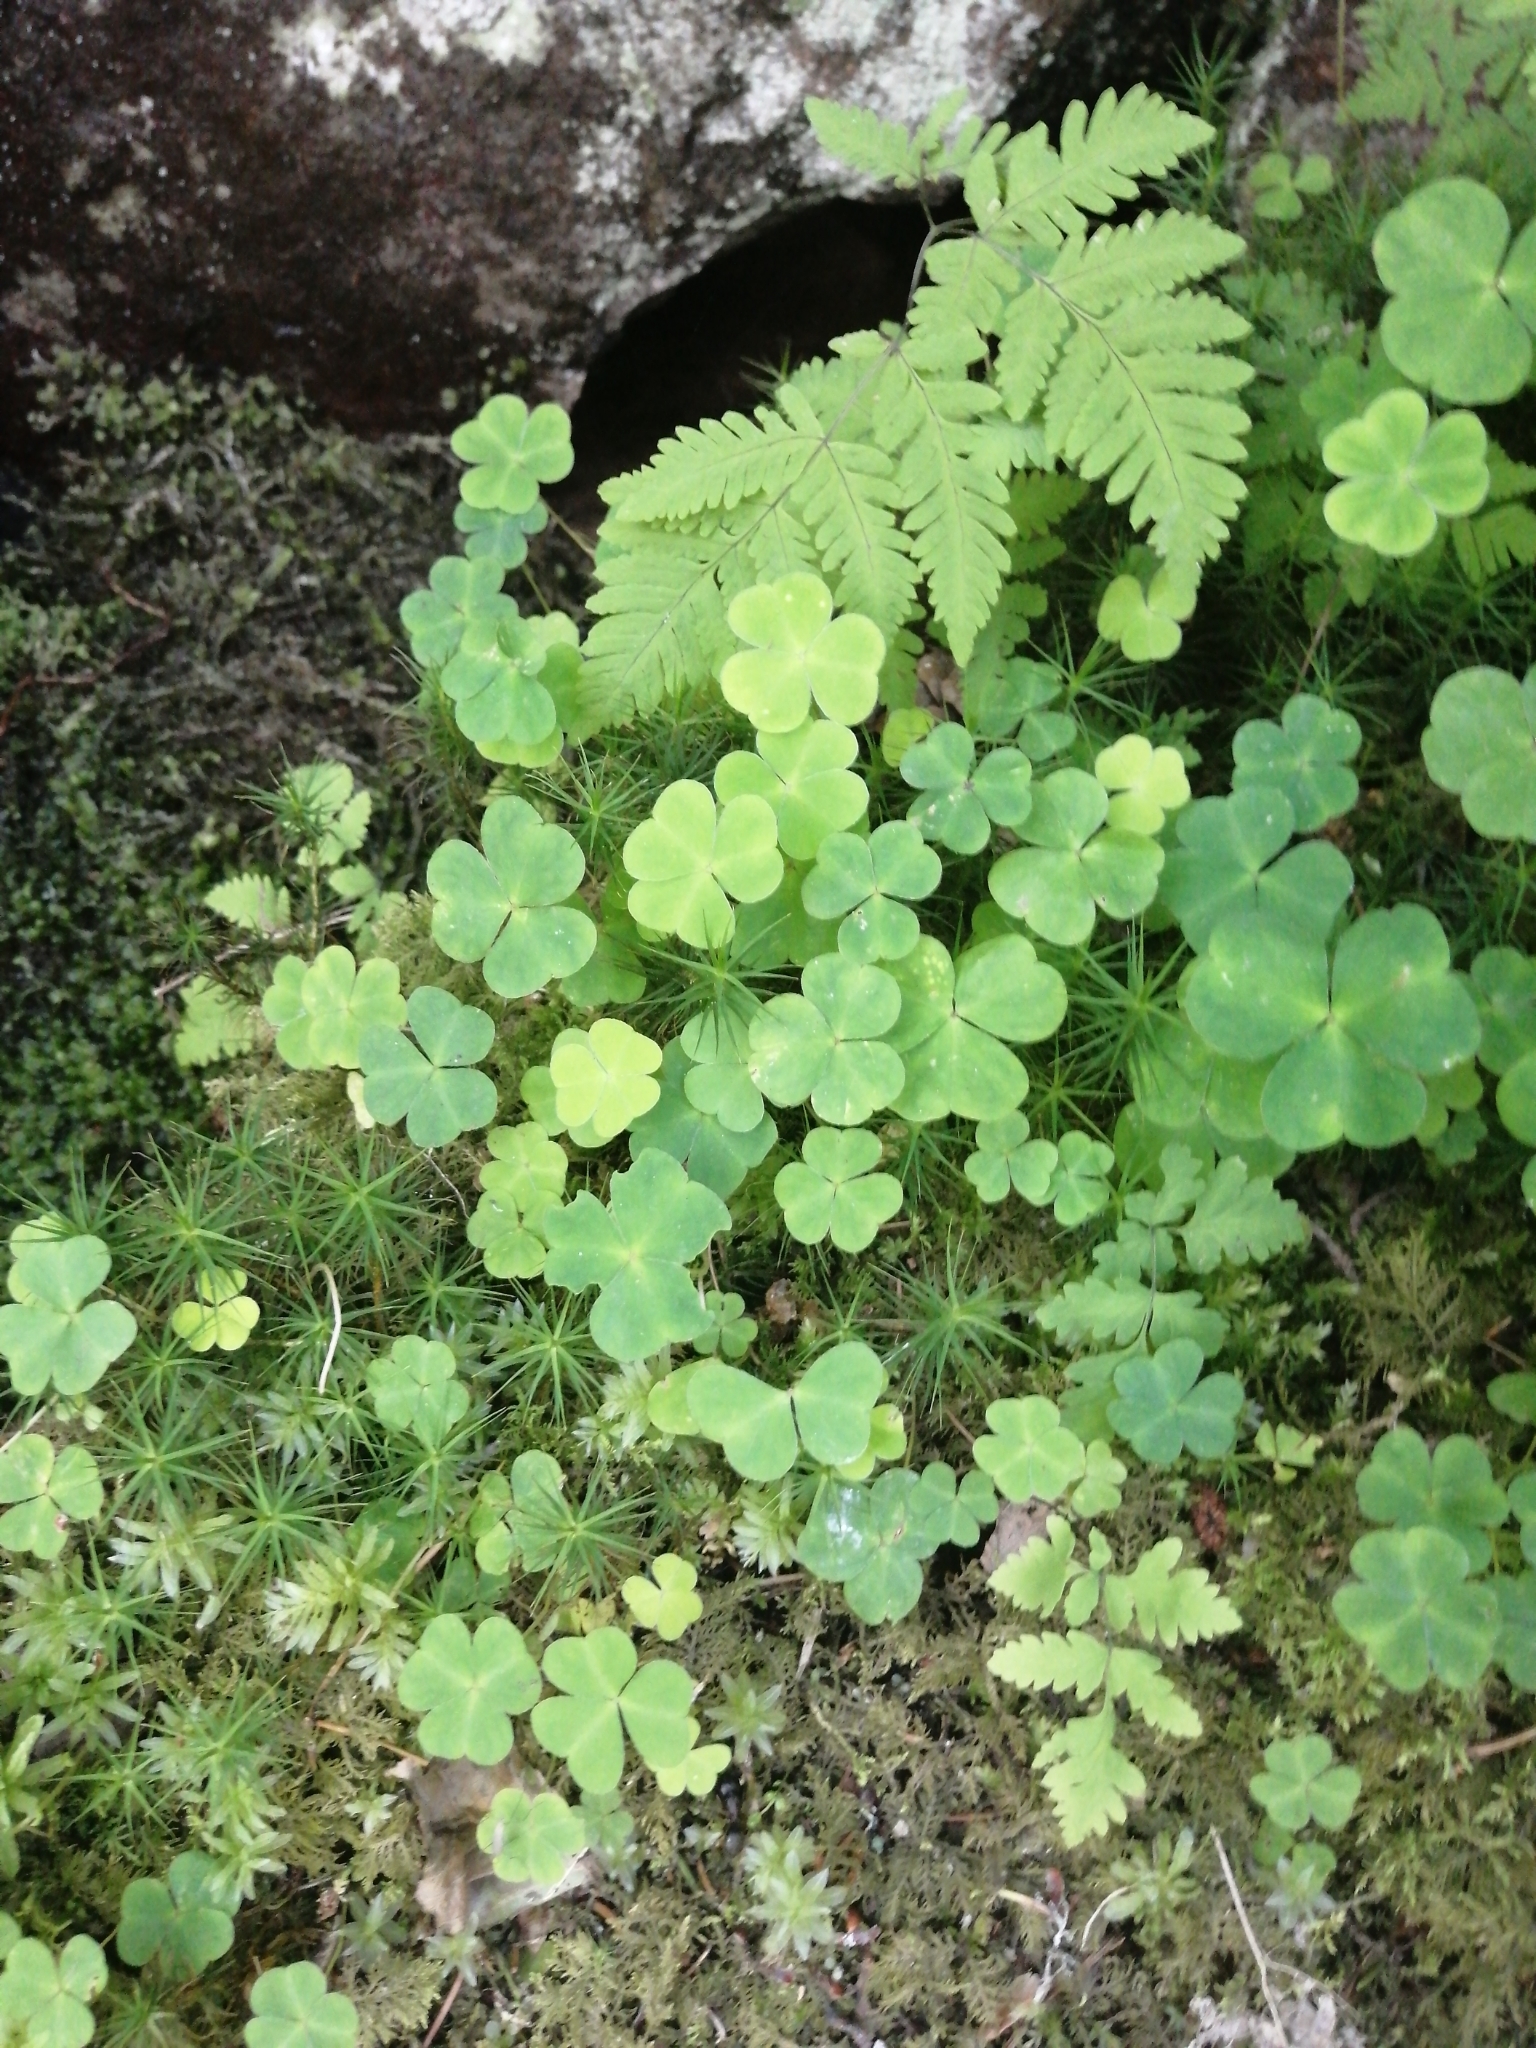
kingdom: Plantae
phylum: Tracheophyta
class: Magnoliopsida
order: Oxalidales
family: Oxalidaceae
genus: Oxalis
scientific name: Oxalis acetosella
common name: Wood-sorrel
